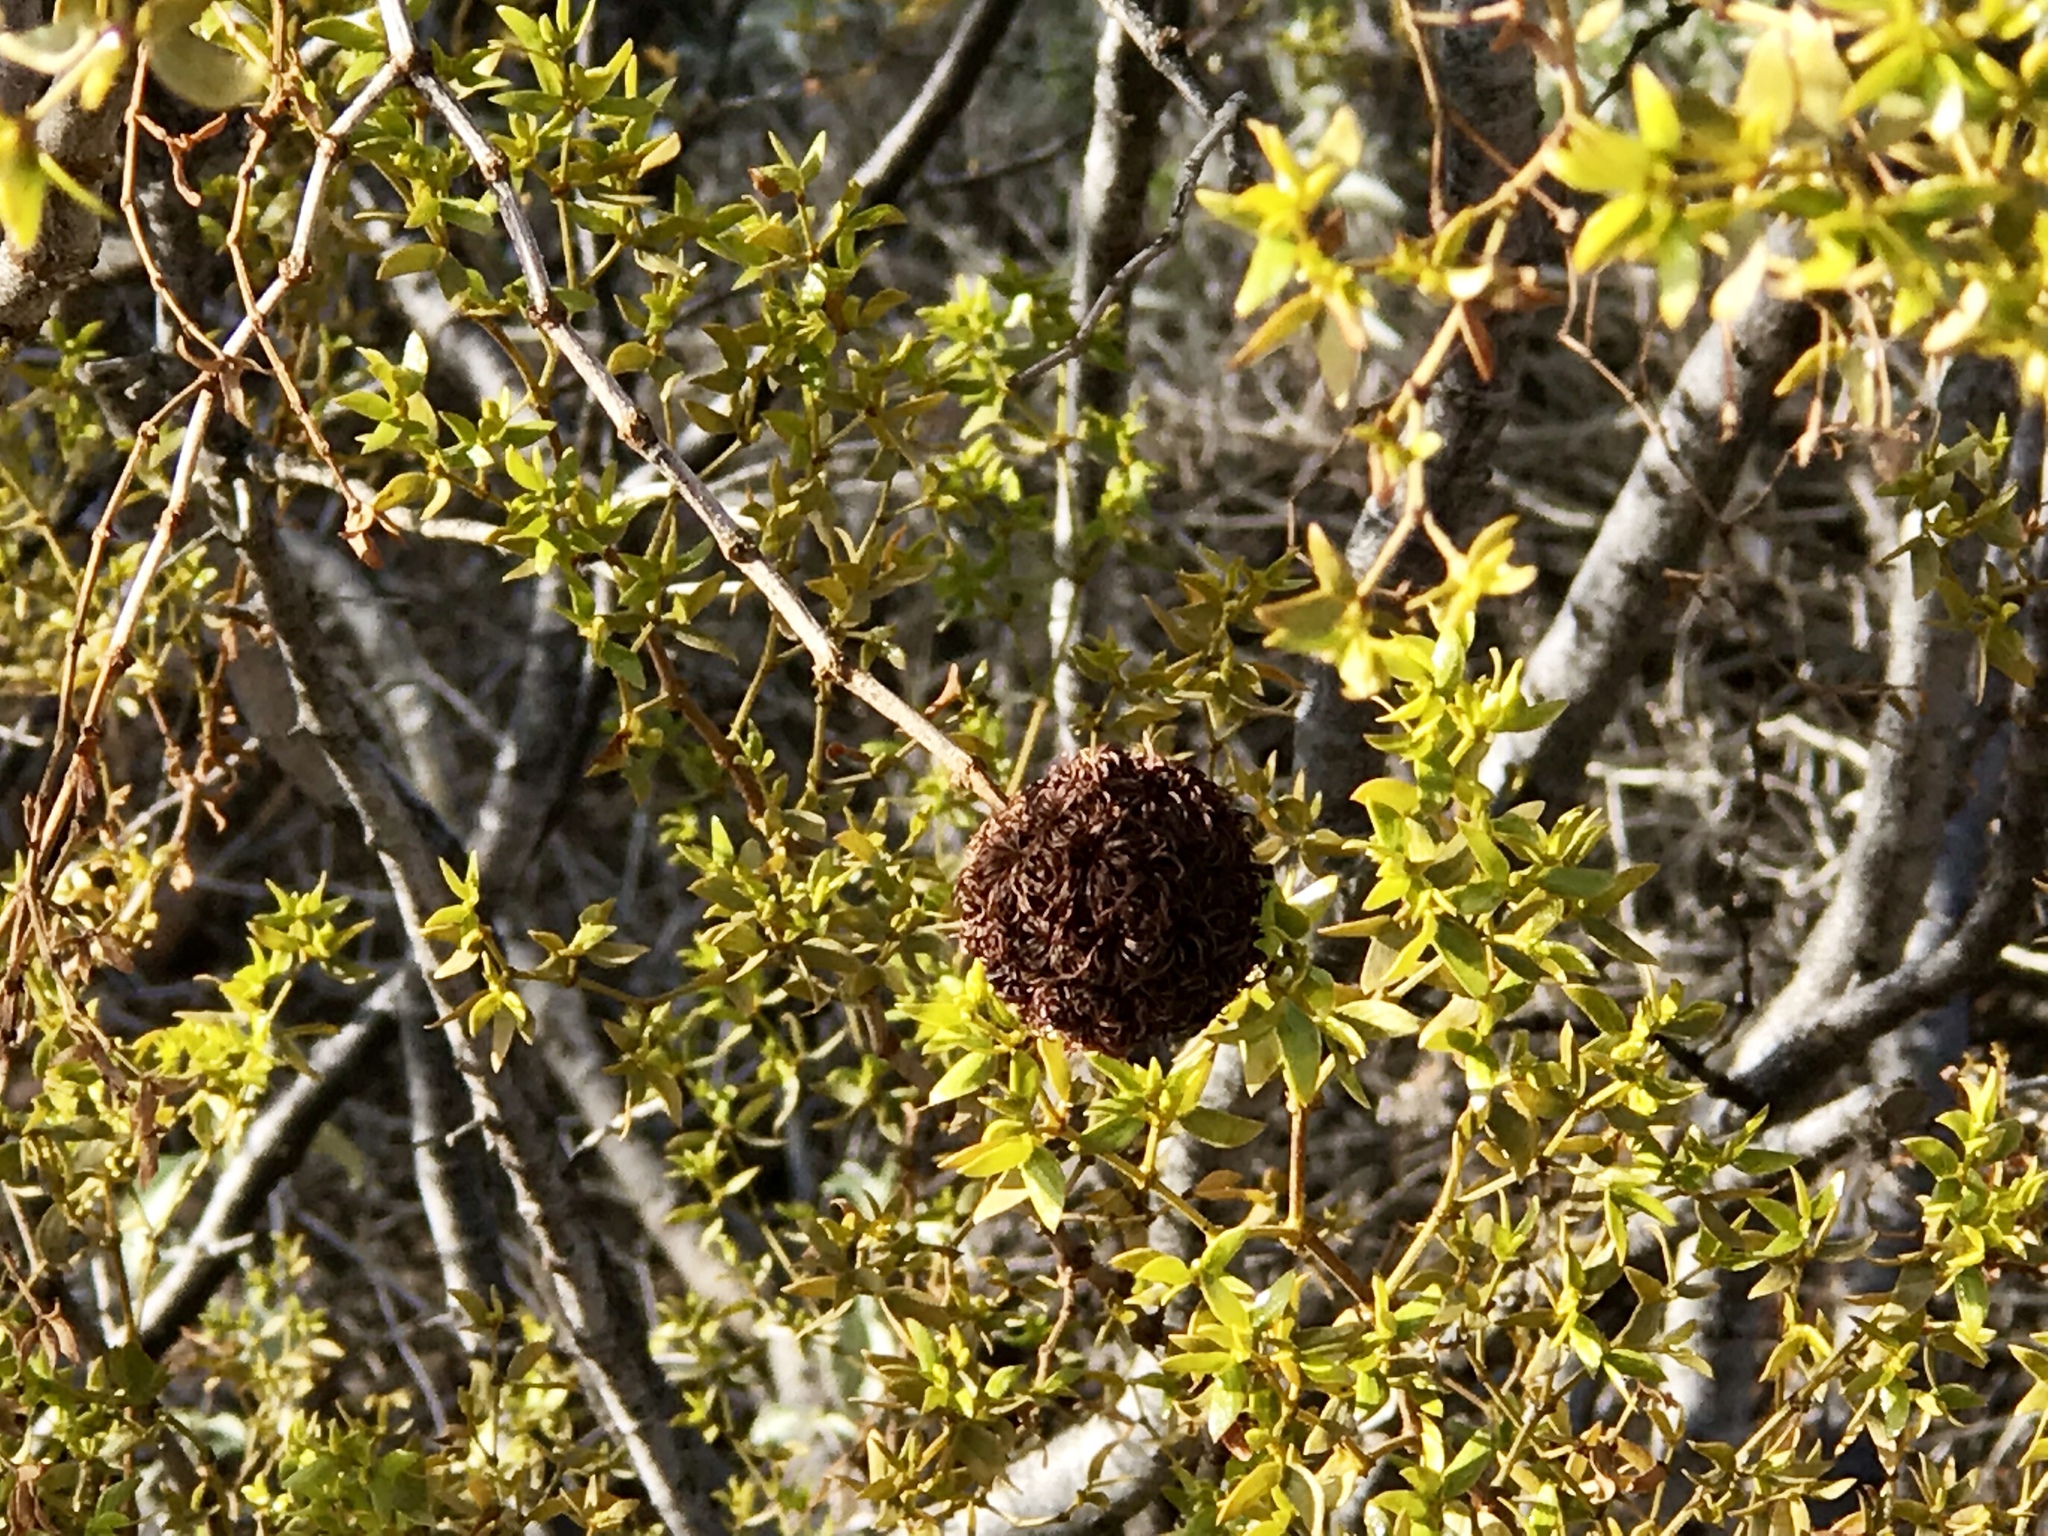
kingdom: Animalia
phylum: Arthropoda
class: Insecta
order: Diptera
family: Cecidomyiidae
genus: Asphondylia
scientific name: Asphondylia auripila
